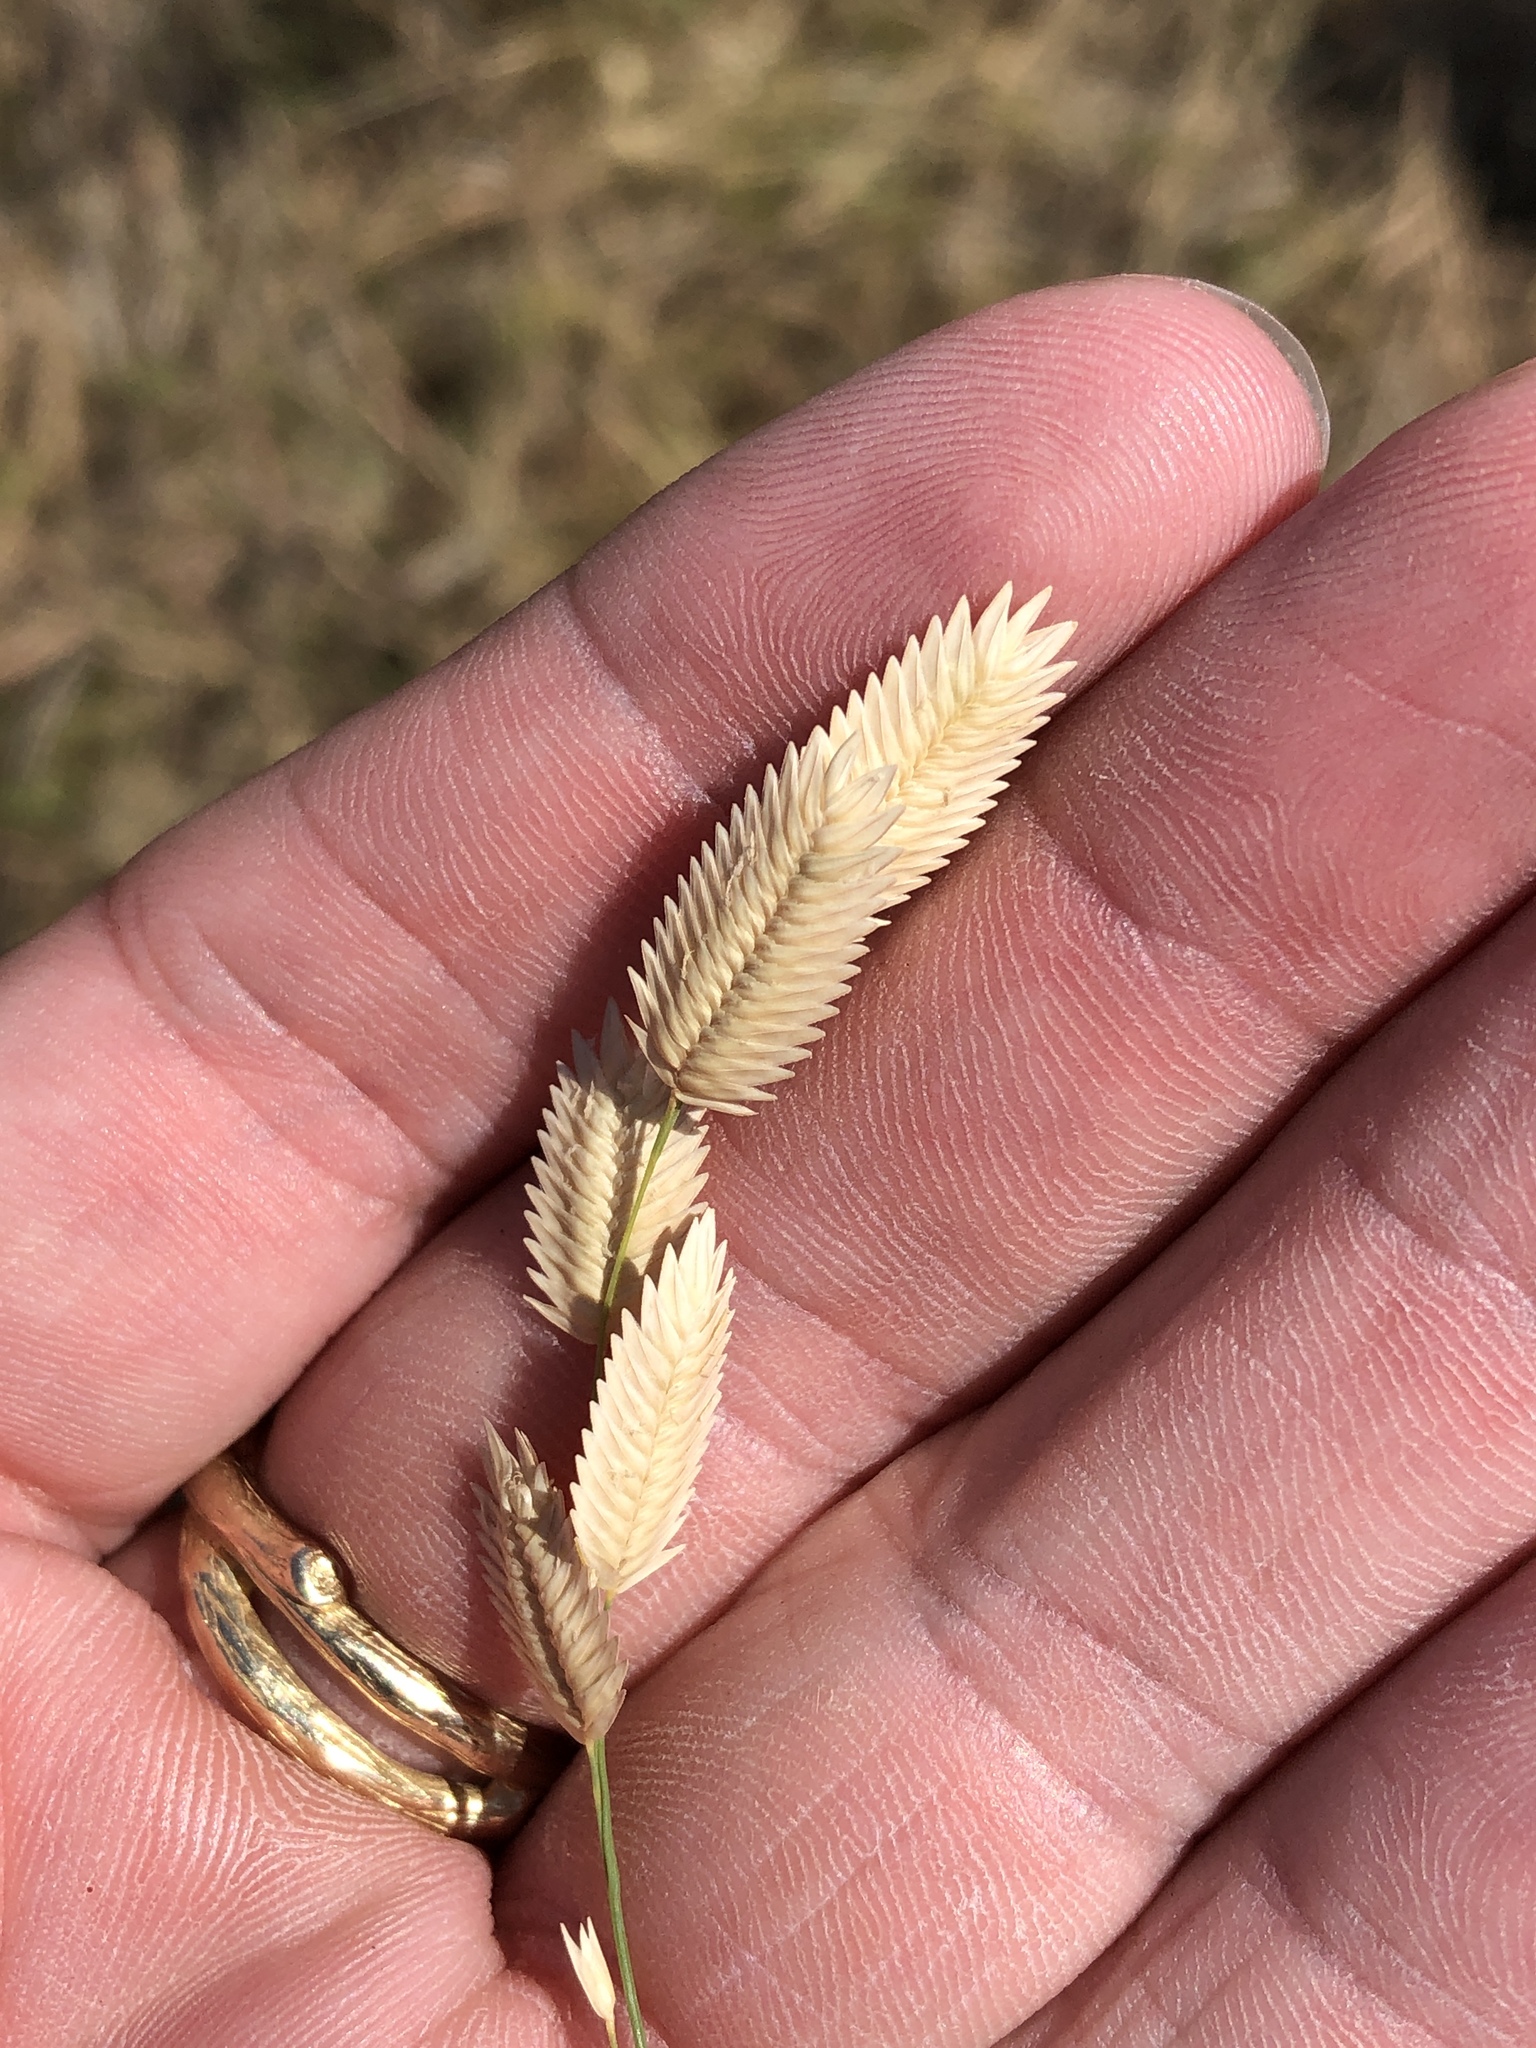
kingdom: Plantae
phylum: Tracheophyta
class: Liliopsida
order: Poales
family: Poaceae
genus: Eragrostis
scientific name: Eragrostis superba
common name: Wilman lovegrass
